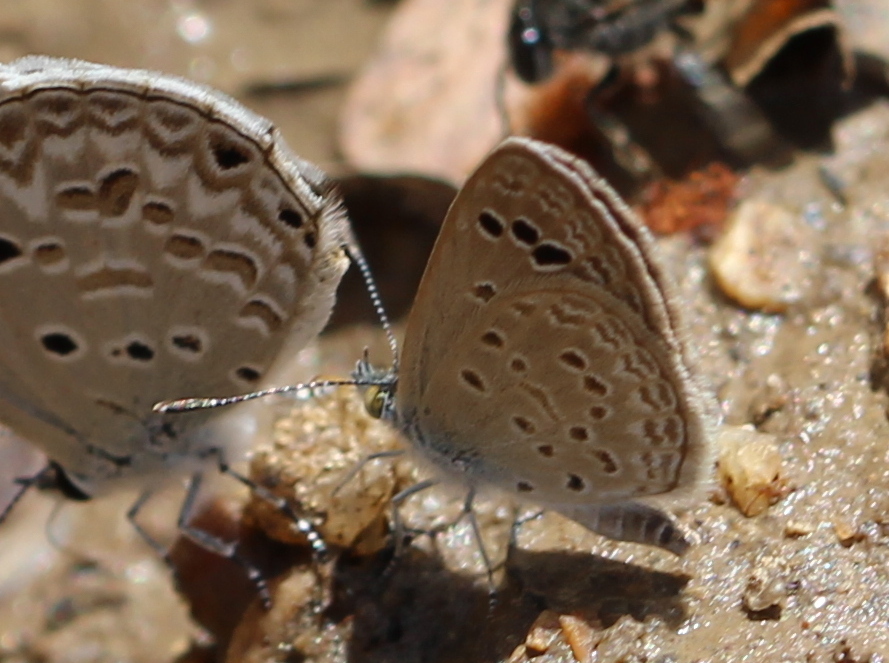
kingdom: Animalia
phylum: Arthropoda
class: Insecta
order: Lepidoptera
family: Lycaenidae
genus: Zizina
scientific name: Zizina otis
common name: Lesser grass blue
